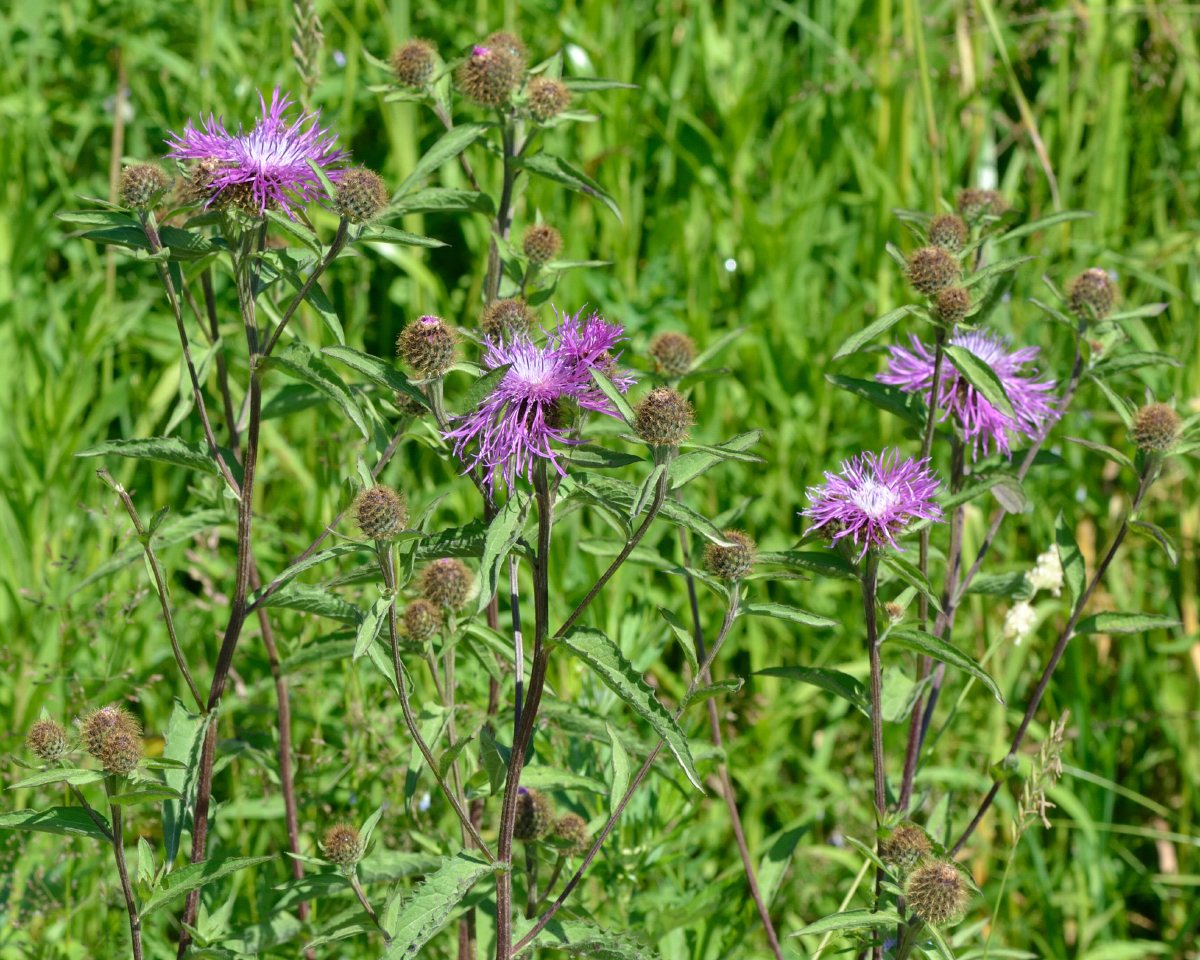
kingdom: Plantae
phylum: Tracheophyta
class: Magnoliopsida
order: Asterales
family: Asteraceae
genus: Centaurea
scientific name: Centaurea phrygia
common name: Wig knapweed
